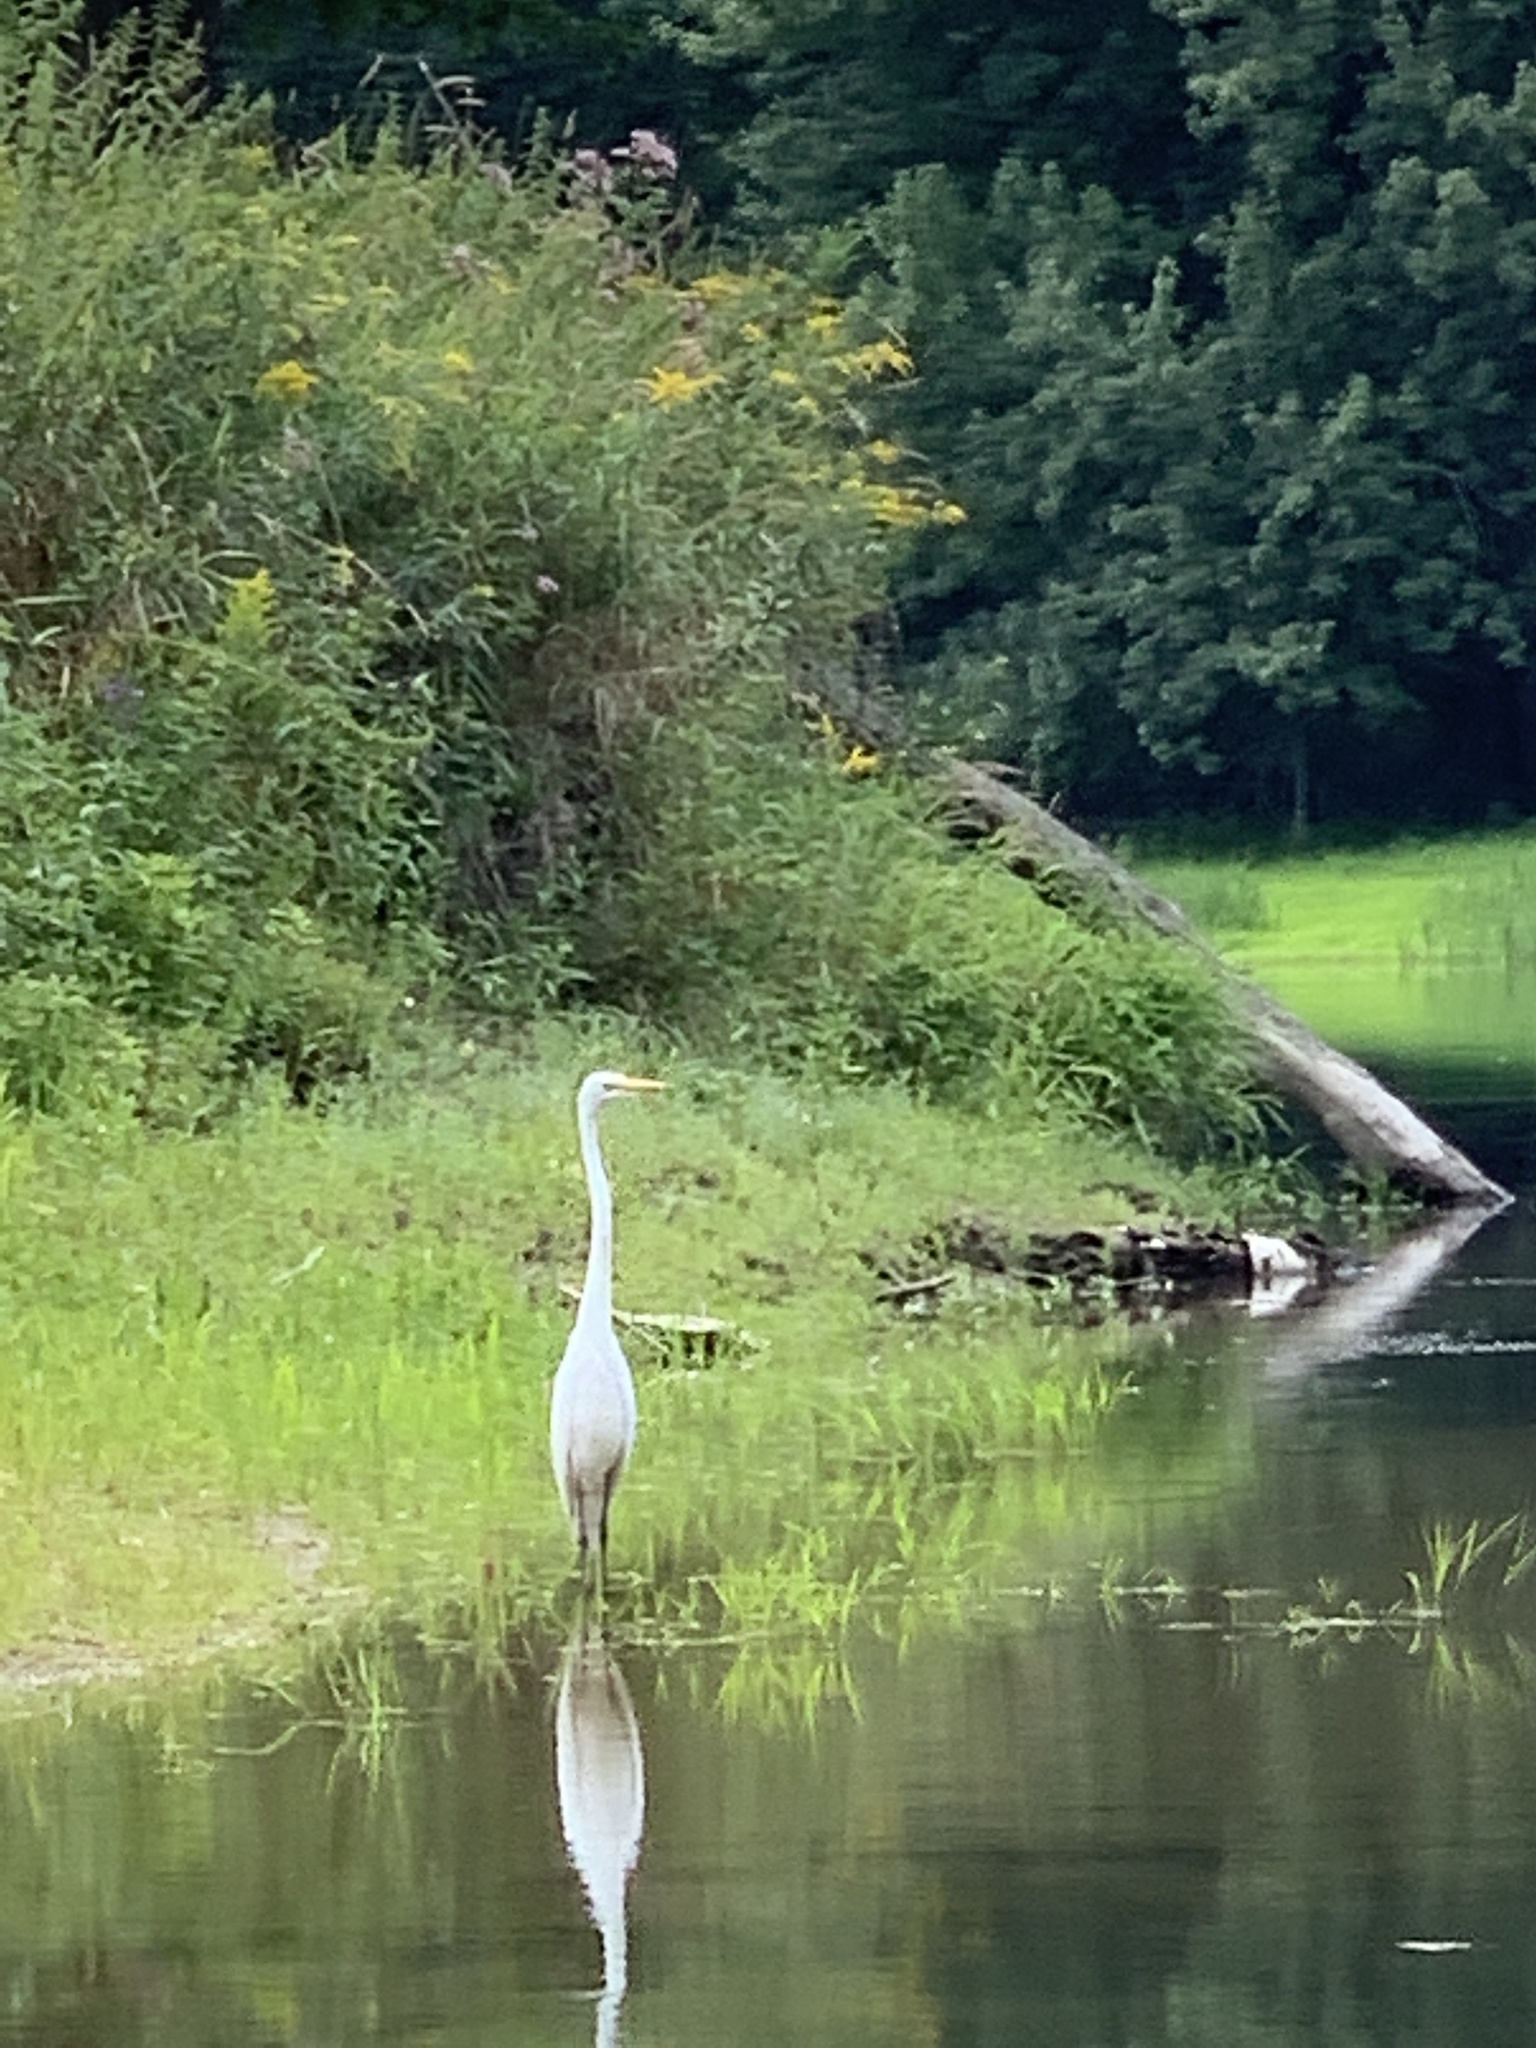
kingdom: Animalia
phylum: Chordata
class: Aves
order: Pelecaniformes
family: Ardeidae
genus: Ardea
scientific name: Ardea alba
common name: Great egret
